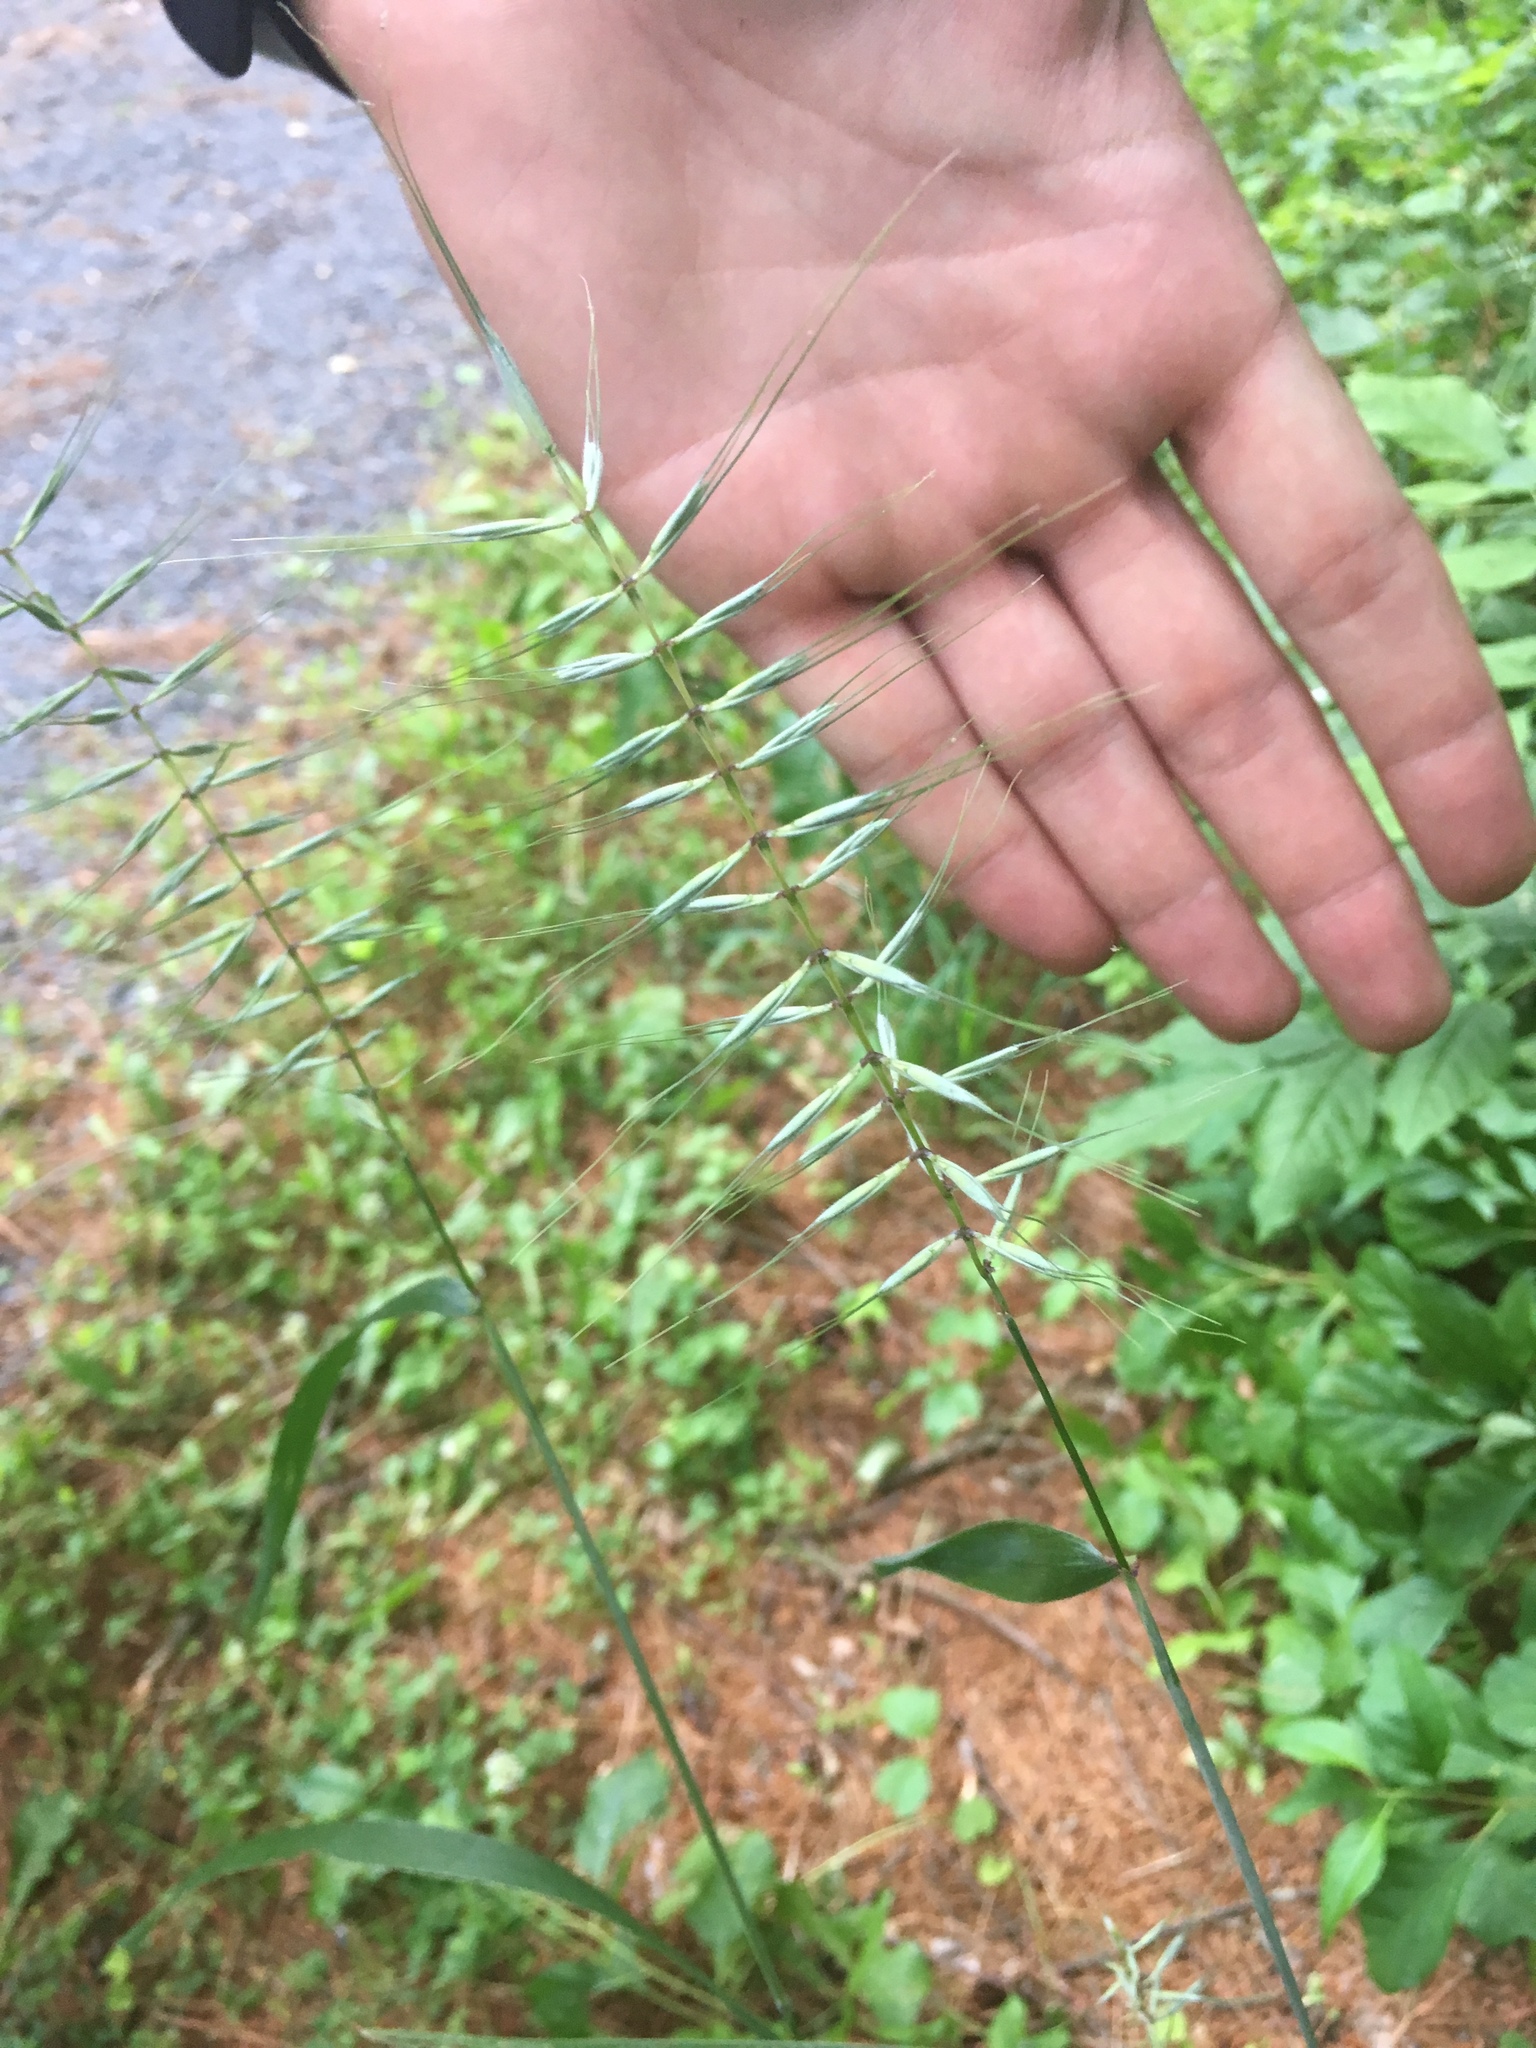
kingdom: Plantae
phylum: Tracheophyta
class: Liliopsida
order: Poales
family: Poaceae
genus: Elymus
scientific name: Elymus hystrix
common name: Bottlebrush grass
